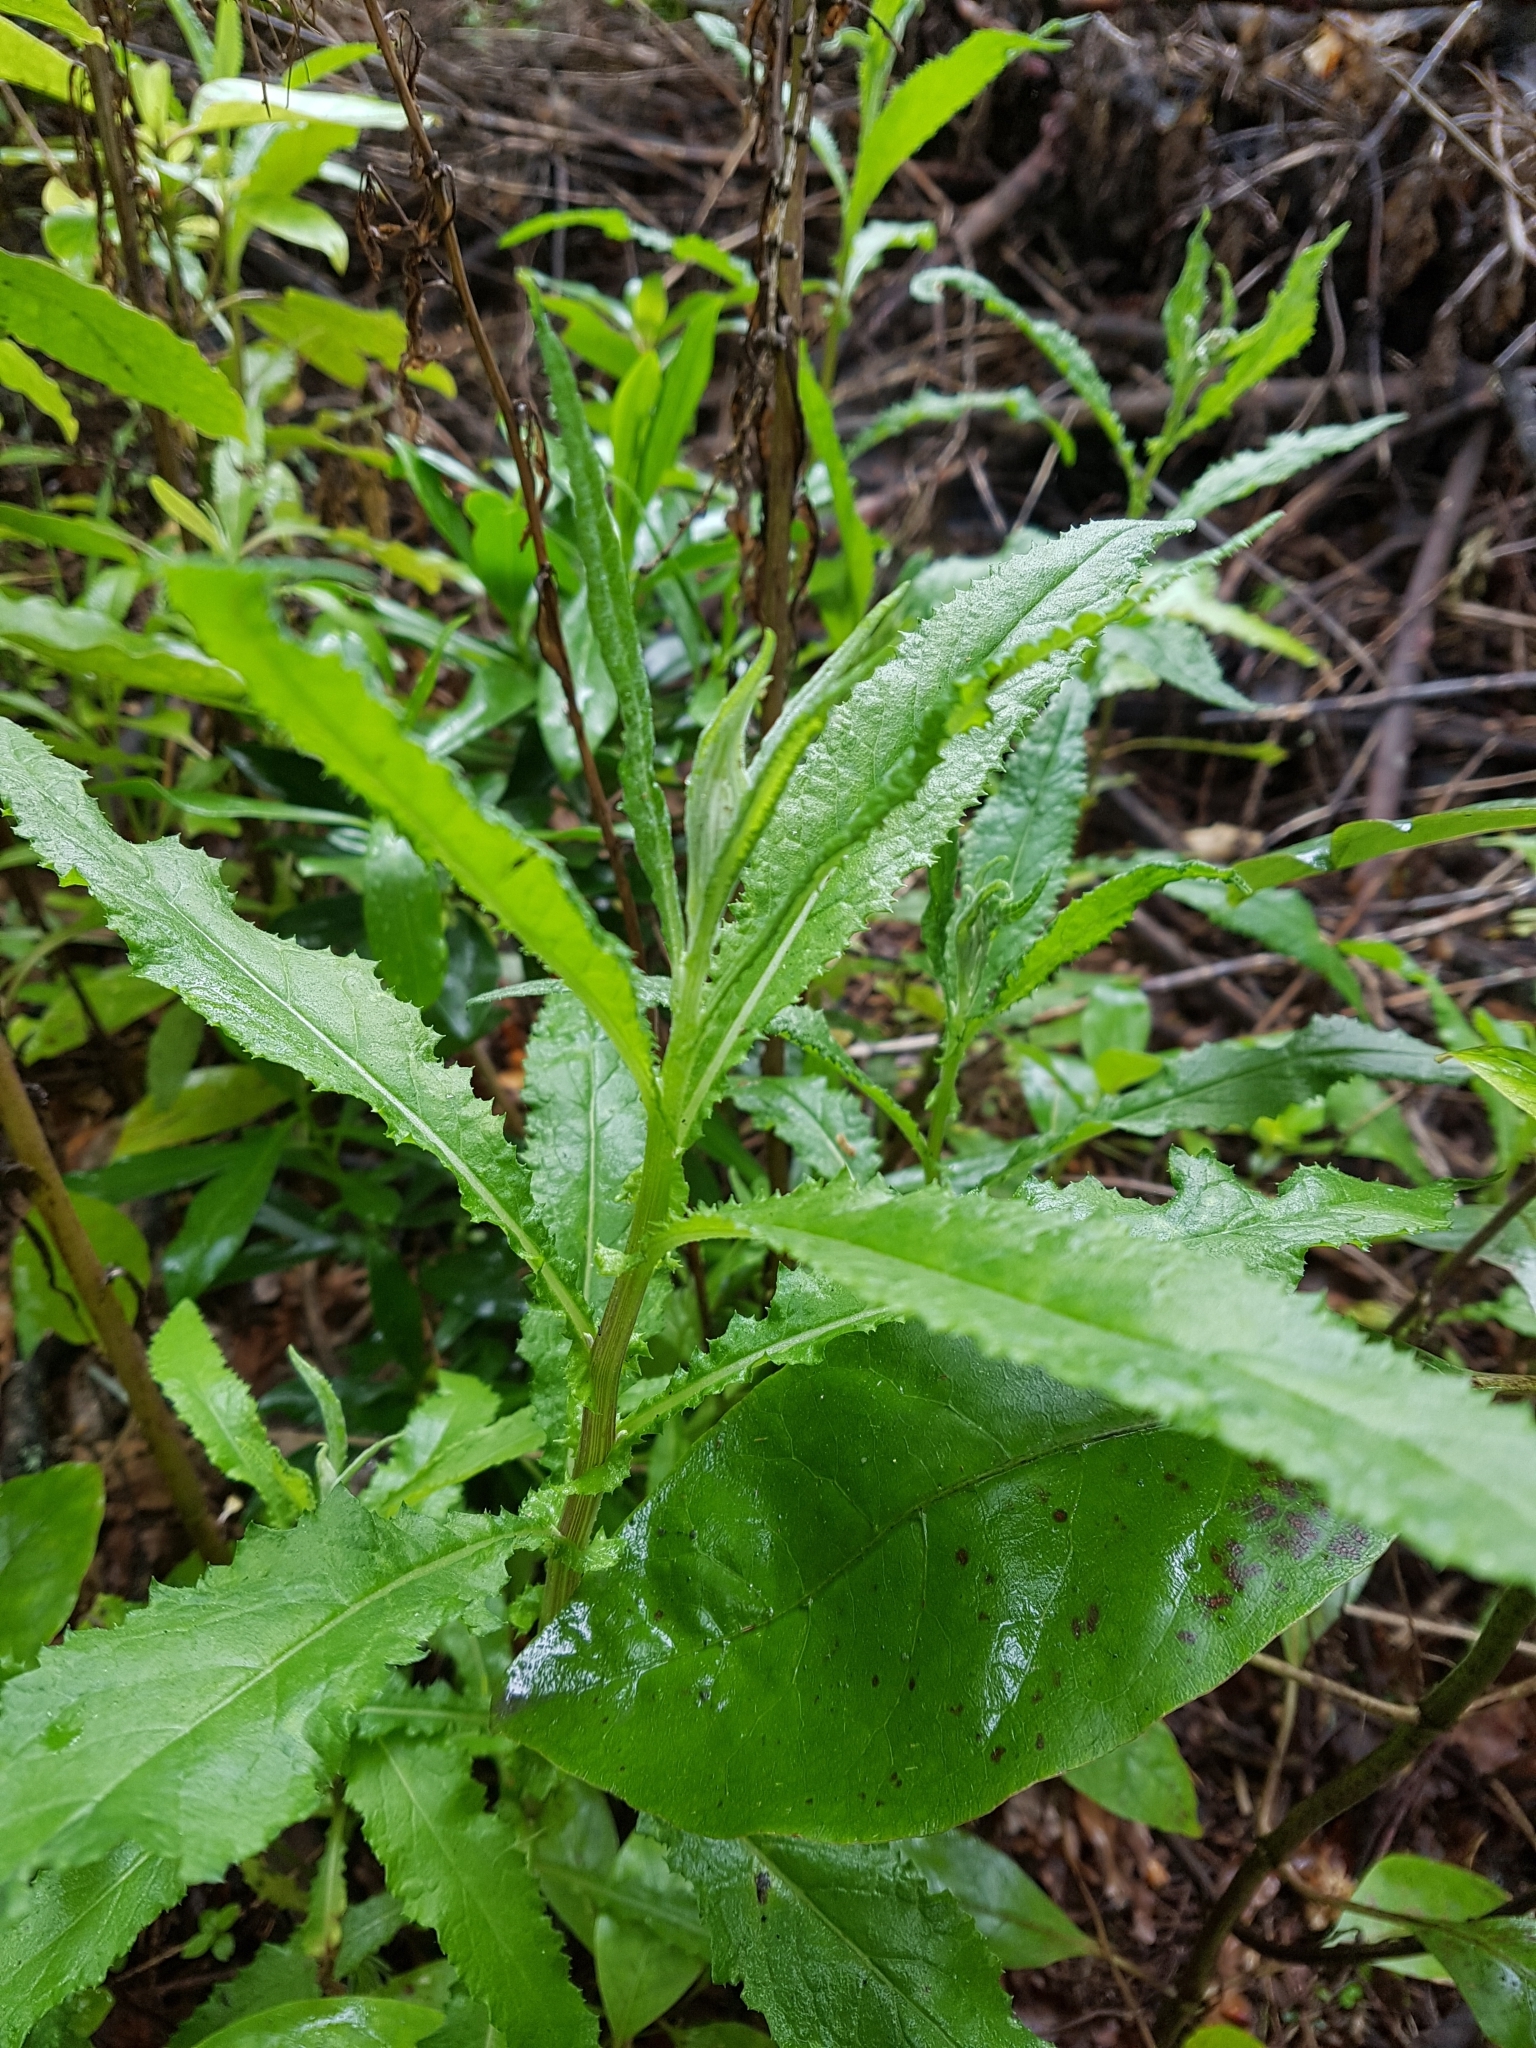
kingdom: Plantae
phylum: Tracheophyta
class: Magnoliopsida
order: Asterales
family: Asteraceae
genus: Senecio
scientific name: Senecio minimus
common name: Toothed fireweed
